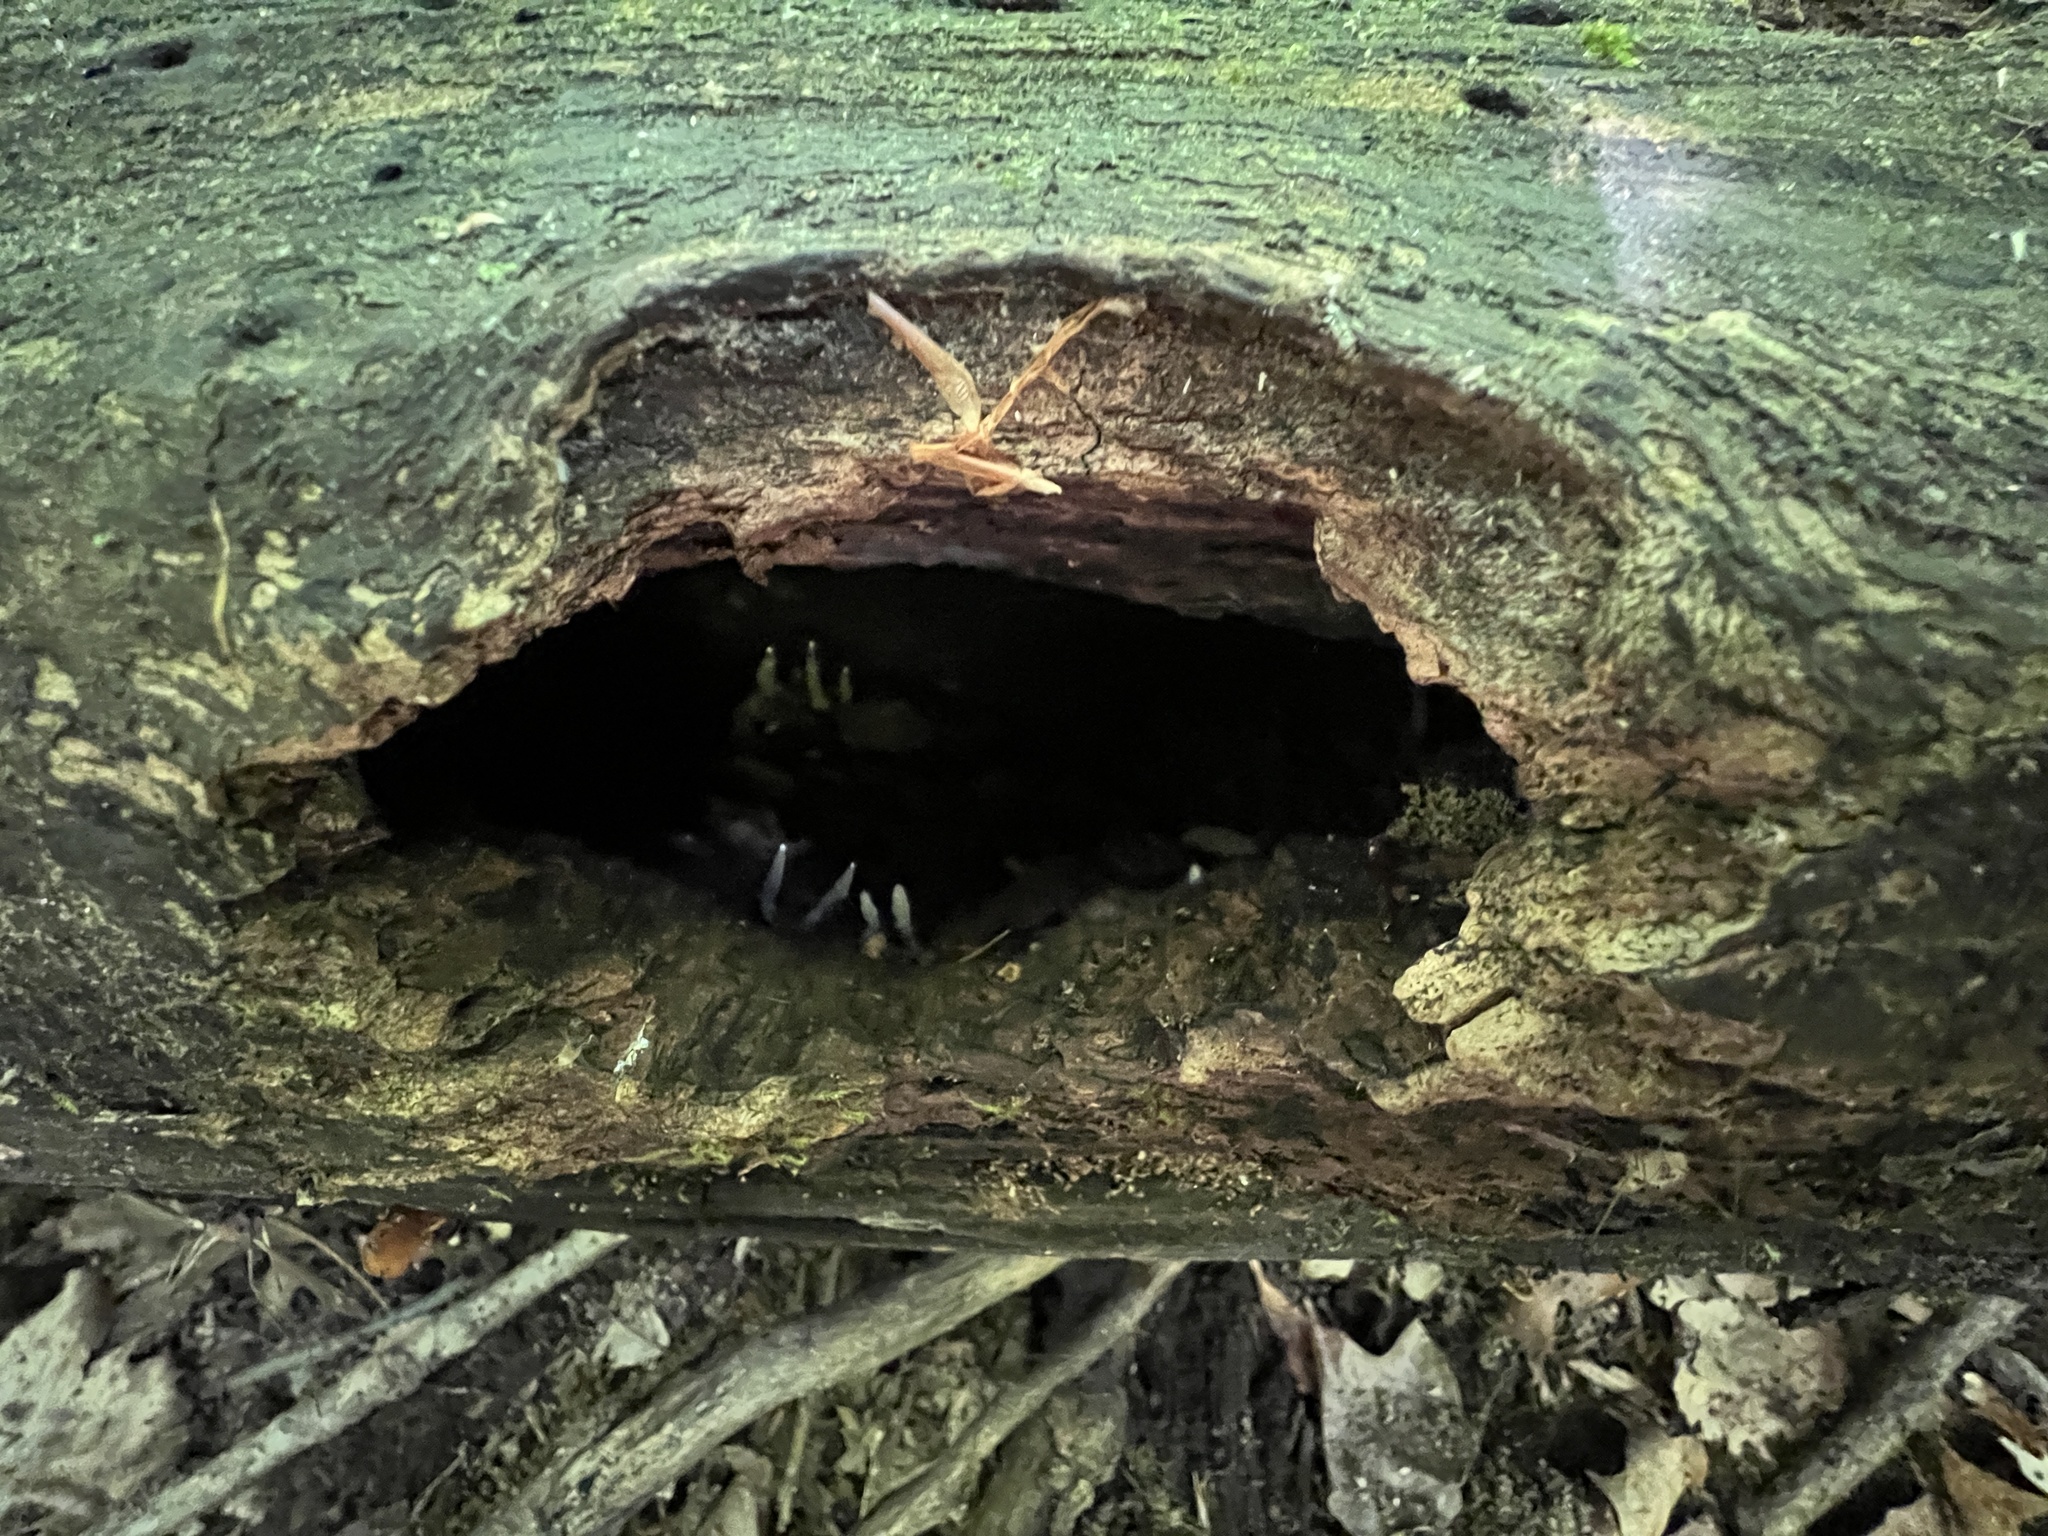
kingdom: Fungi
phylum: Ascomycota
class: Sordariomycetes
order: Xylariales
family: Xylariaceae
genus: Xylaria
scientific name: Xylaria corniformis
